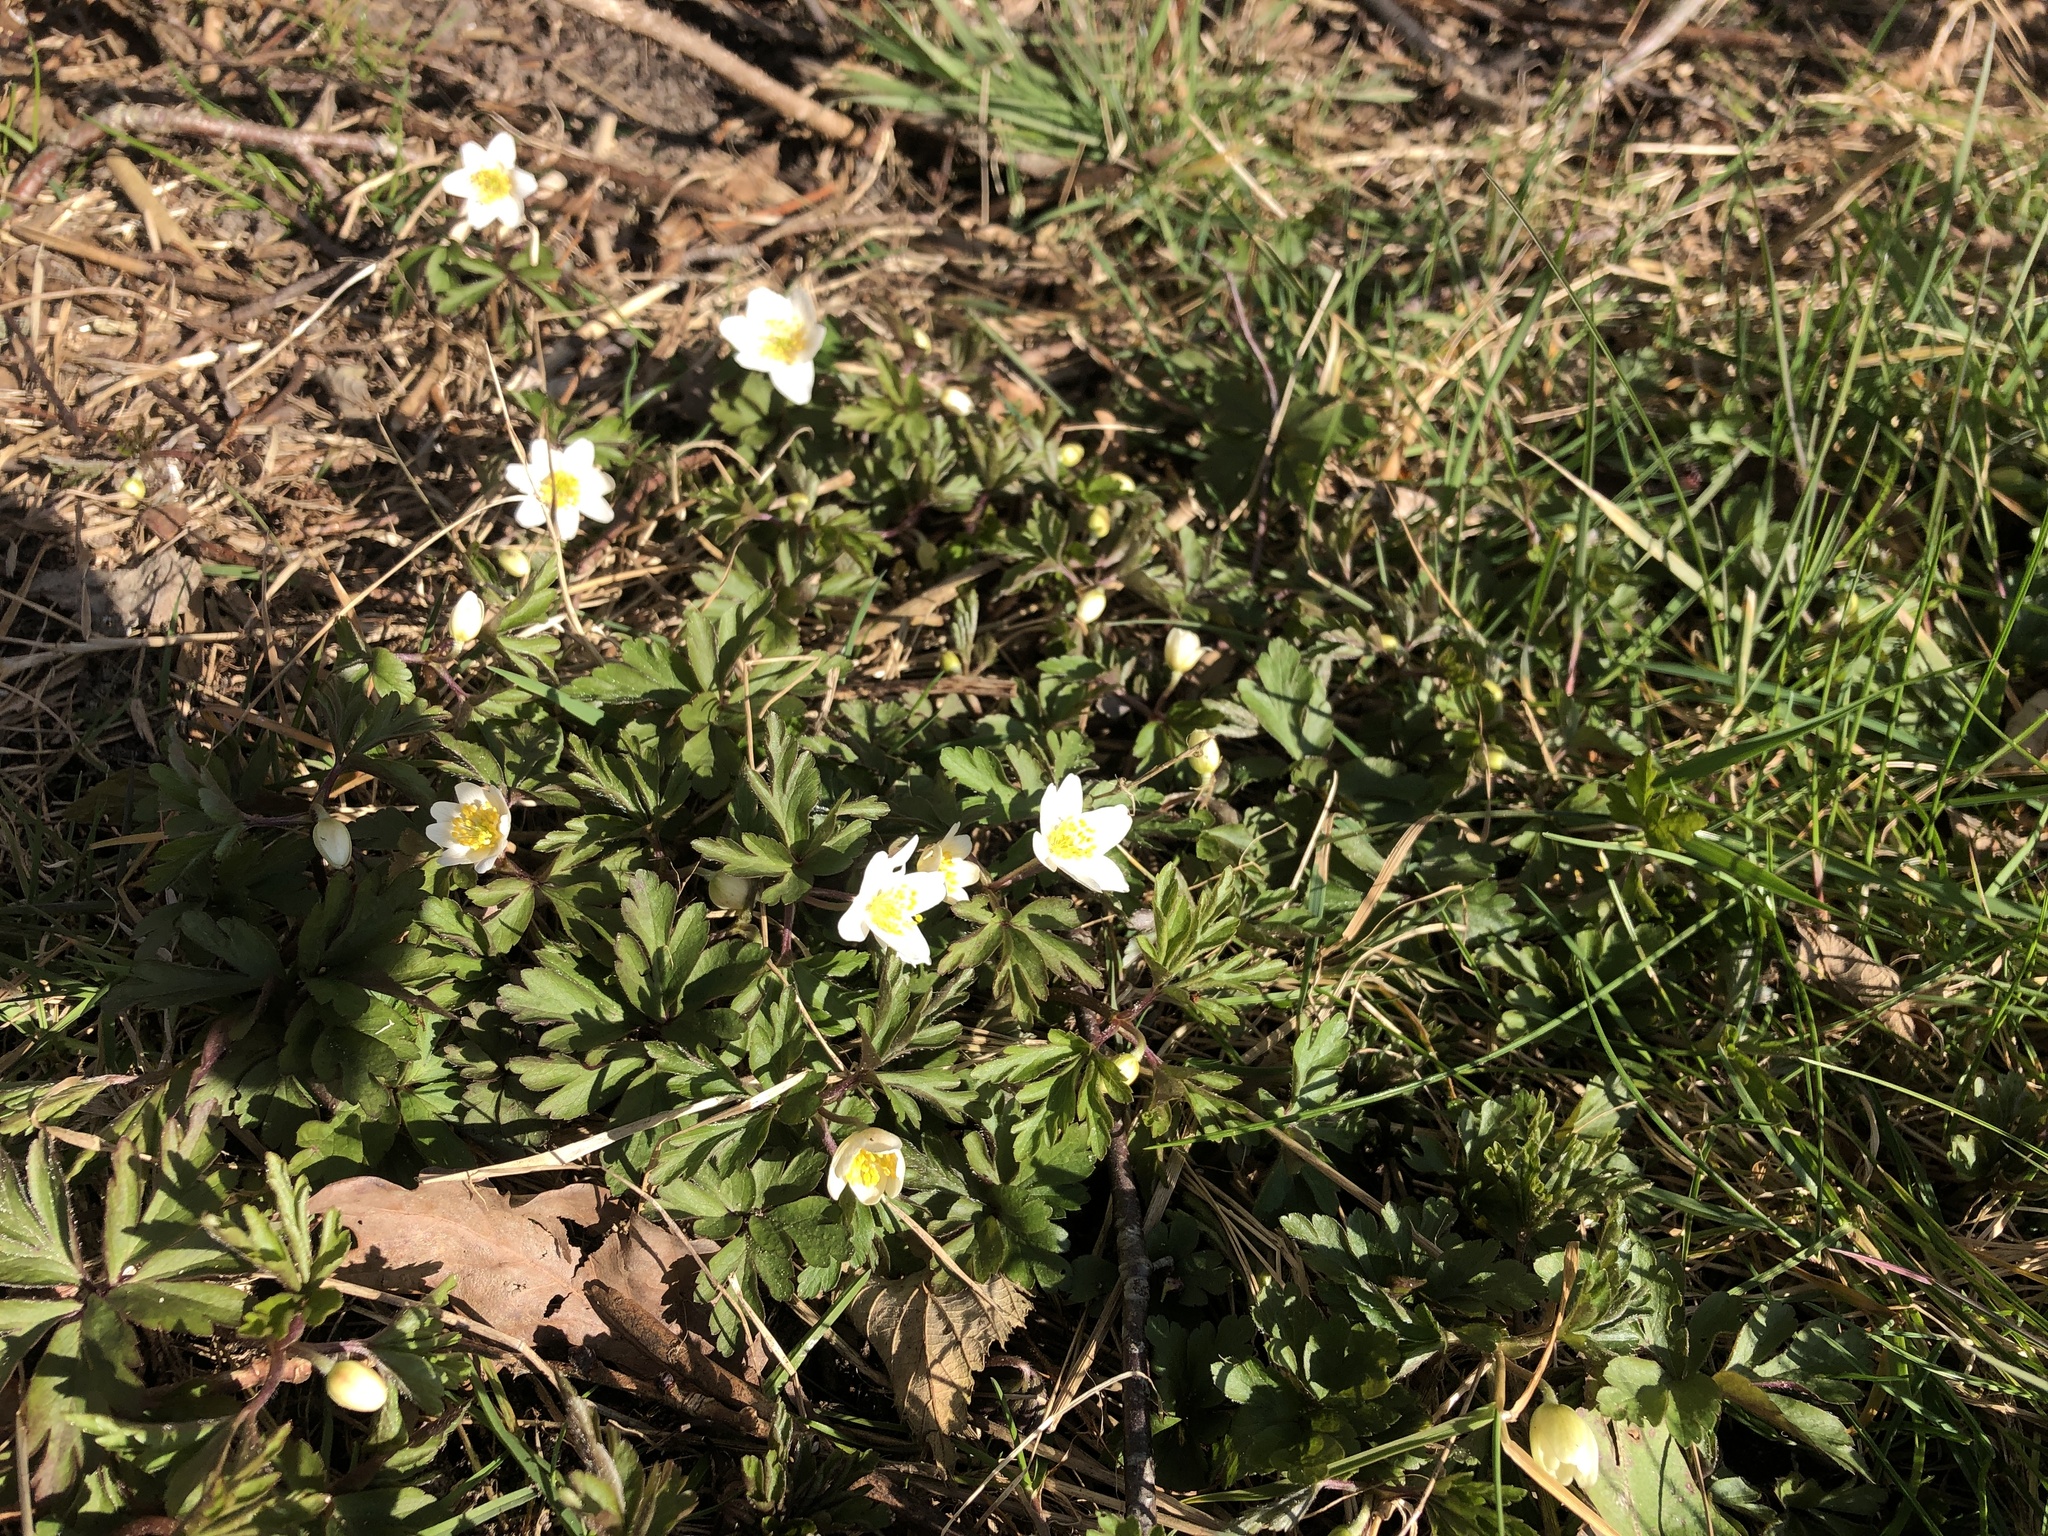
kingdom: Plantae
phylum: Tracheophyta
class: Magnoliopsida
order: Ranunculales
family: Ranunculaceae
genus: Anemone
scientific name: Anemone nemorosa
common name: Wood anemone
